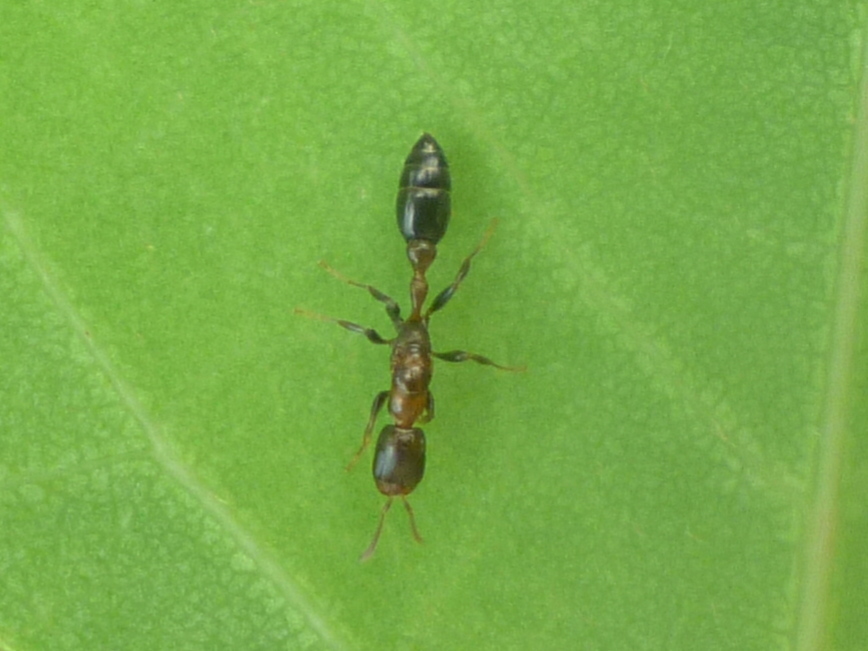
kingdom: Animalia
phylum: Arthropoda
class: Insecta
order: Hymenoptera
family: Formicidae
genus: Pseudomyrmex
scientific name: Pseudomyrmex ejectus
